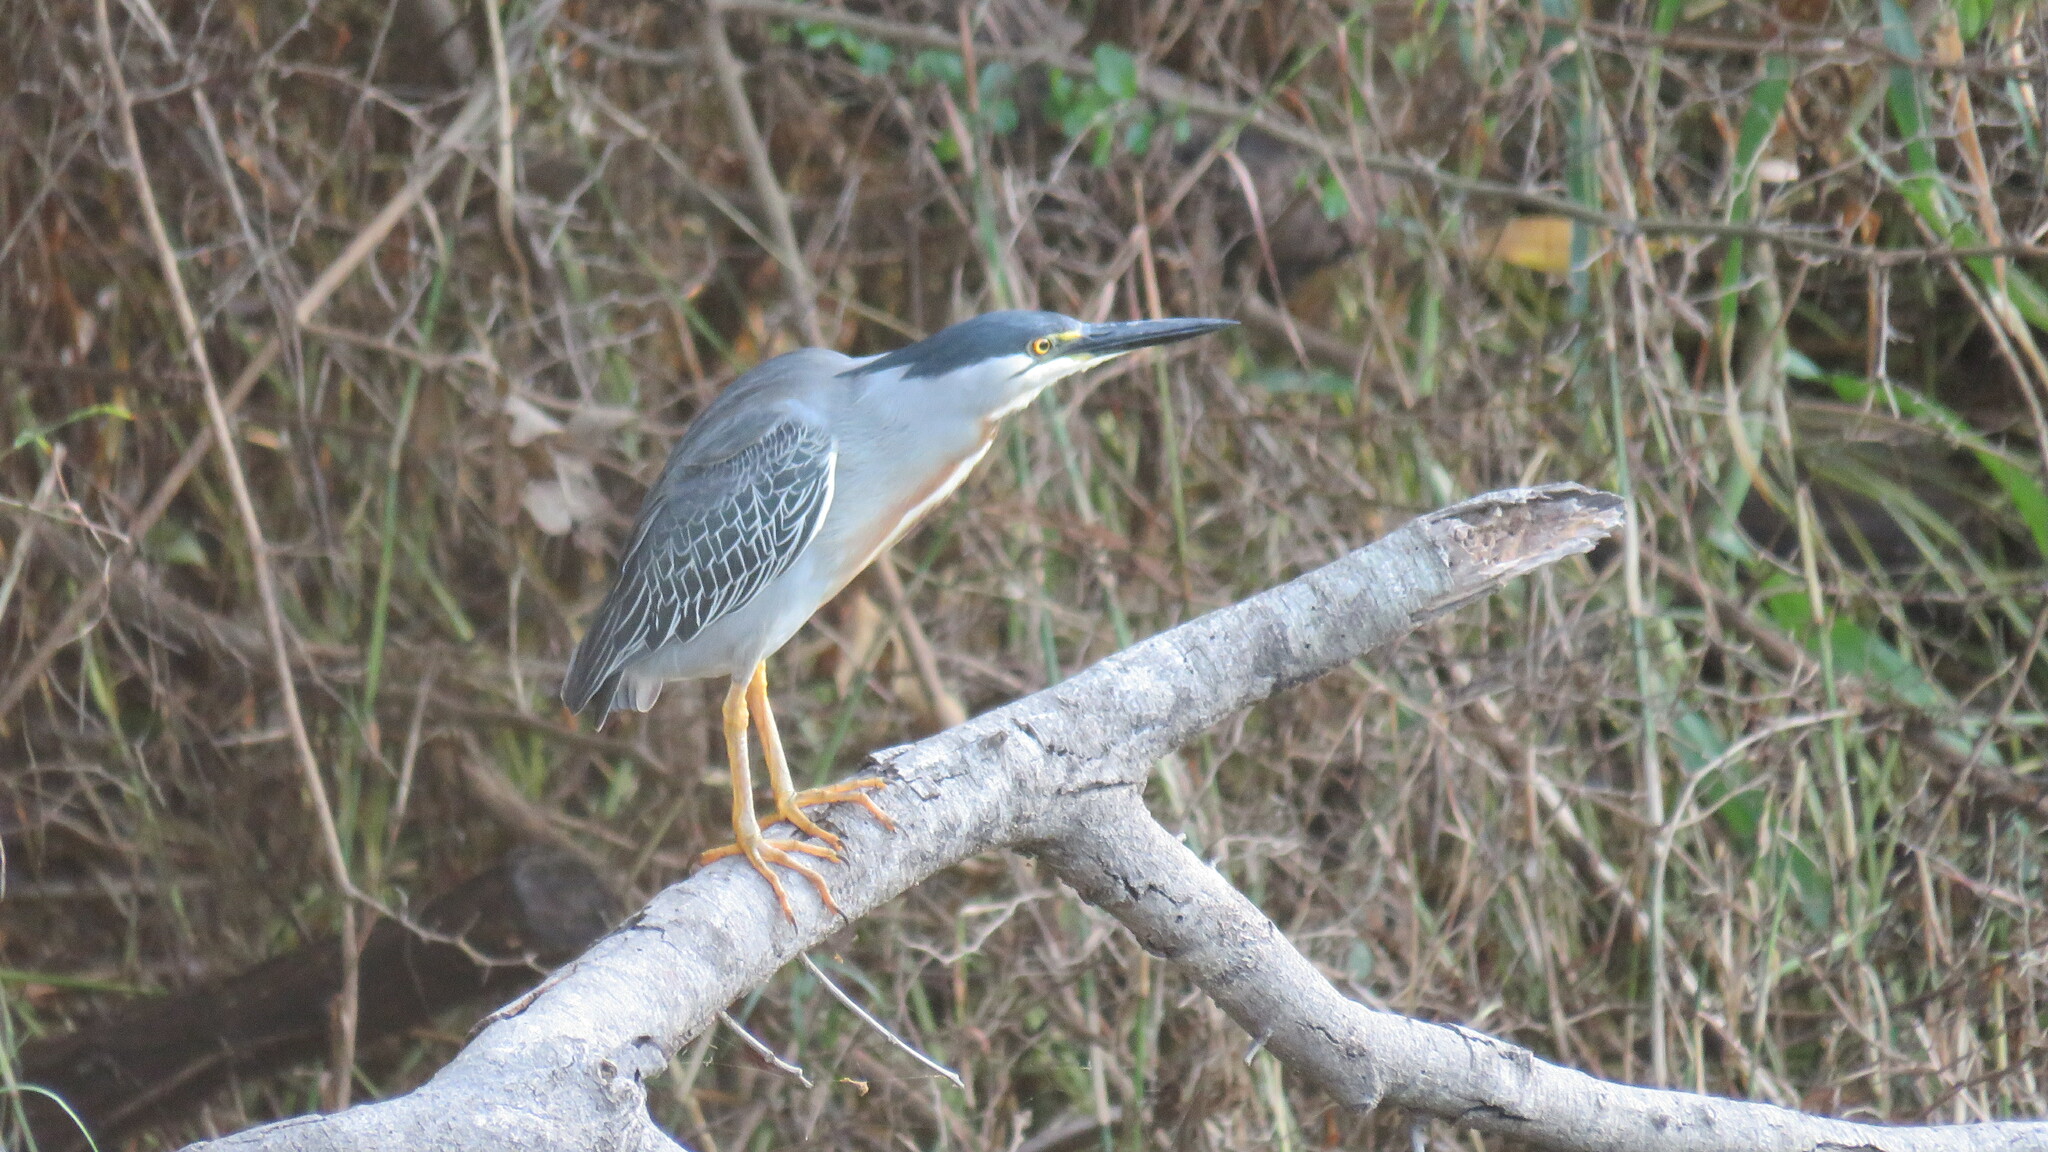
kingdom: Animalia
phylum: Chordata
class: Aves
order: Pelecaniformes
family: Ardeidae
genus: Butorides
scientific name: Butorides striata
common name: Striated heron
